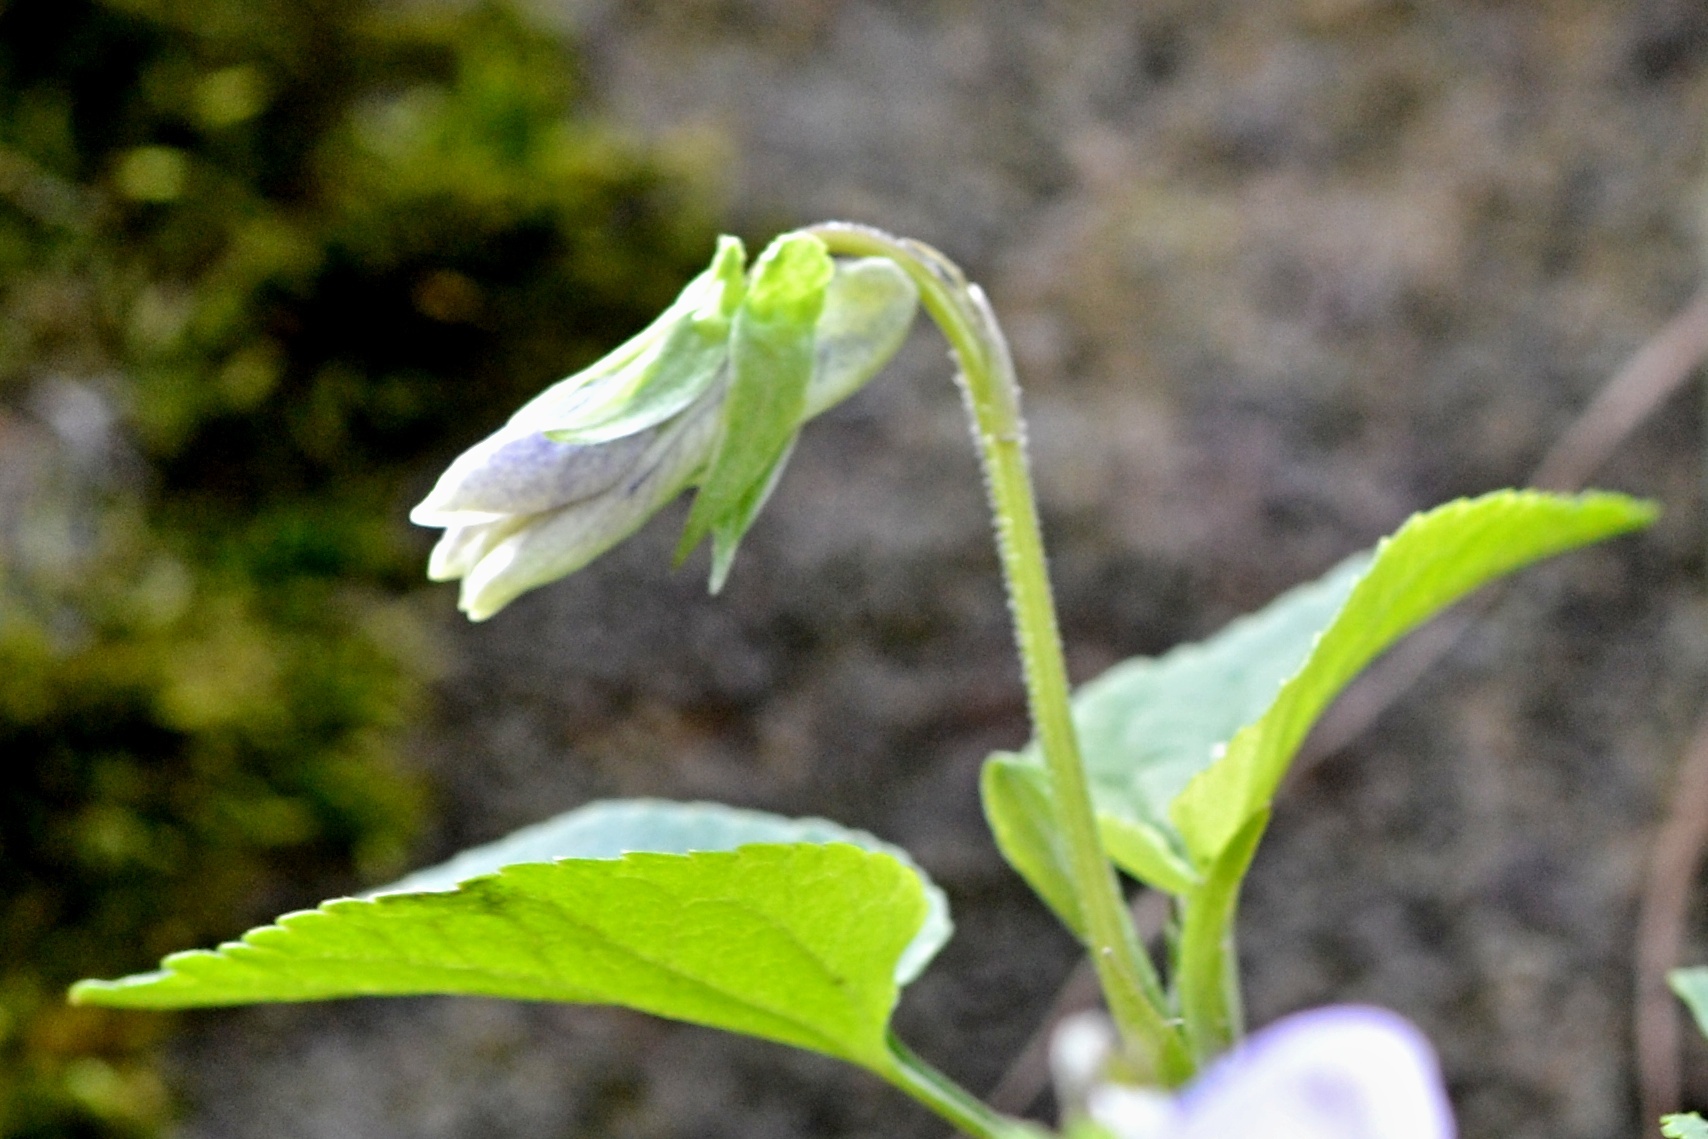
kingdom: Plantae
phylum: Tracheophyta
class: Magnoliopsida
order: Malpighiales
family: Violaceae
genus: Viola
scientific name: Viola riviniana
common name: Common dog-violet
